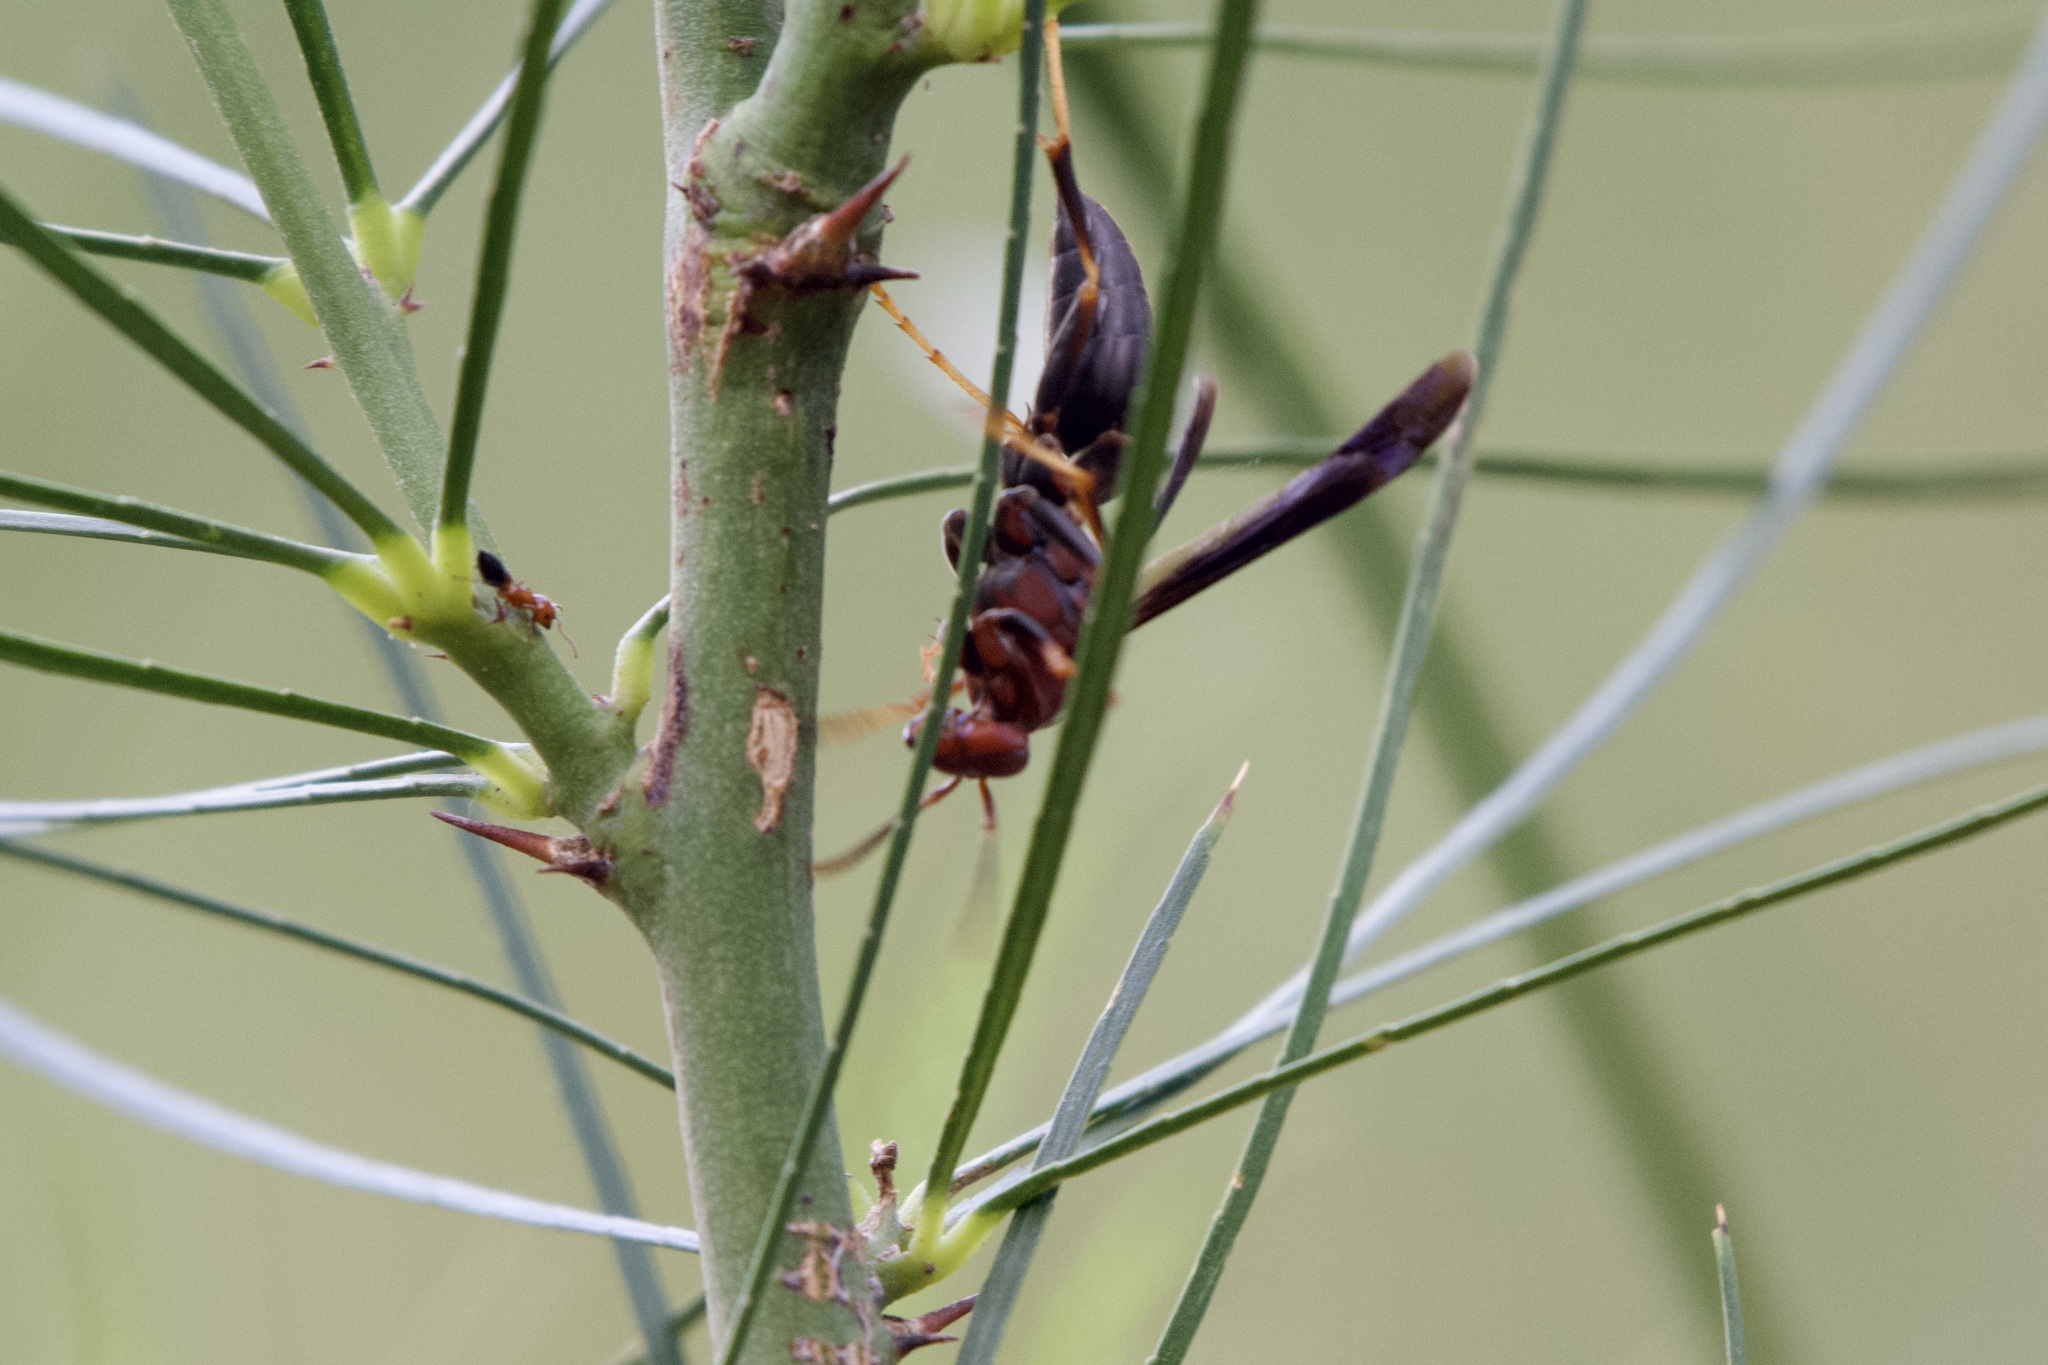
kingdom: Animalia
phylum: Arthropoda
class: Insecta
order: Hymenoptera
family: Eumenidae
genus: Polistes
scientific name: Polistes metricus
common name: Metric paper wasp
